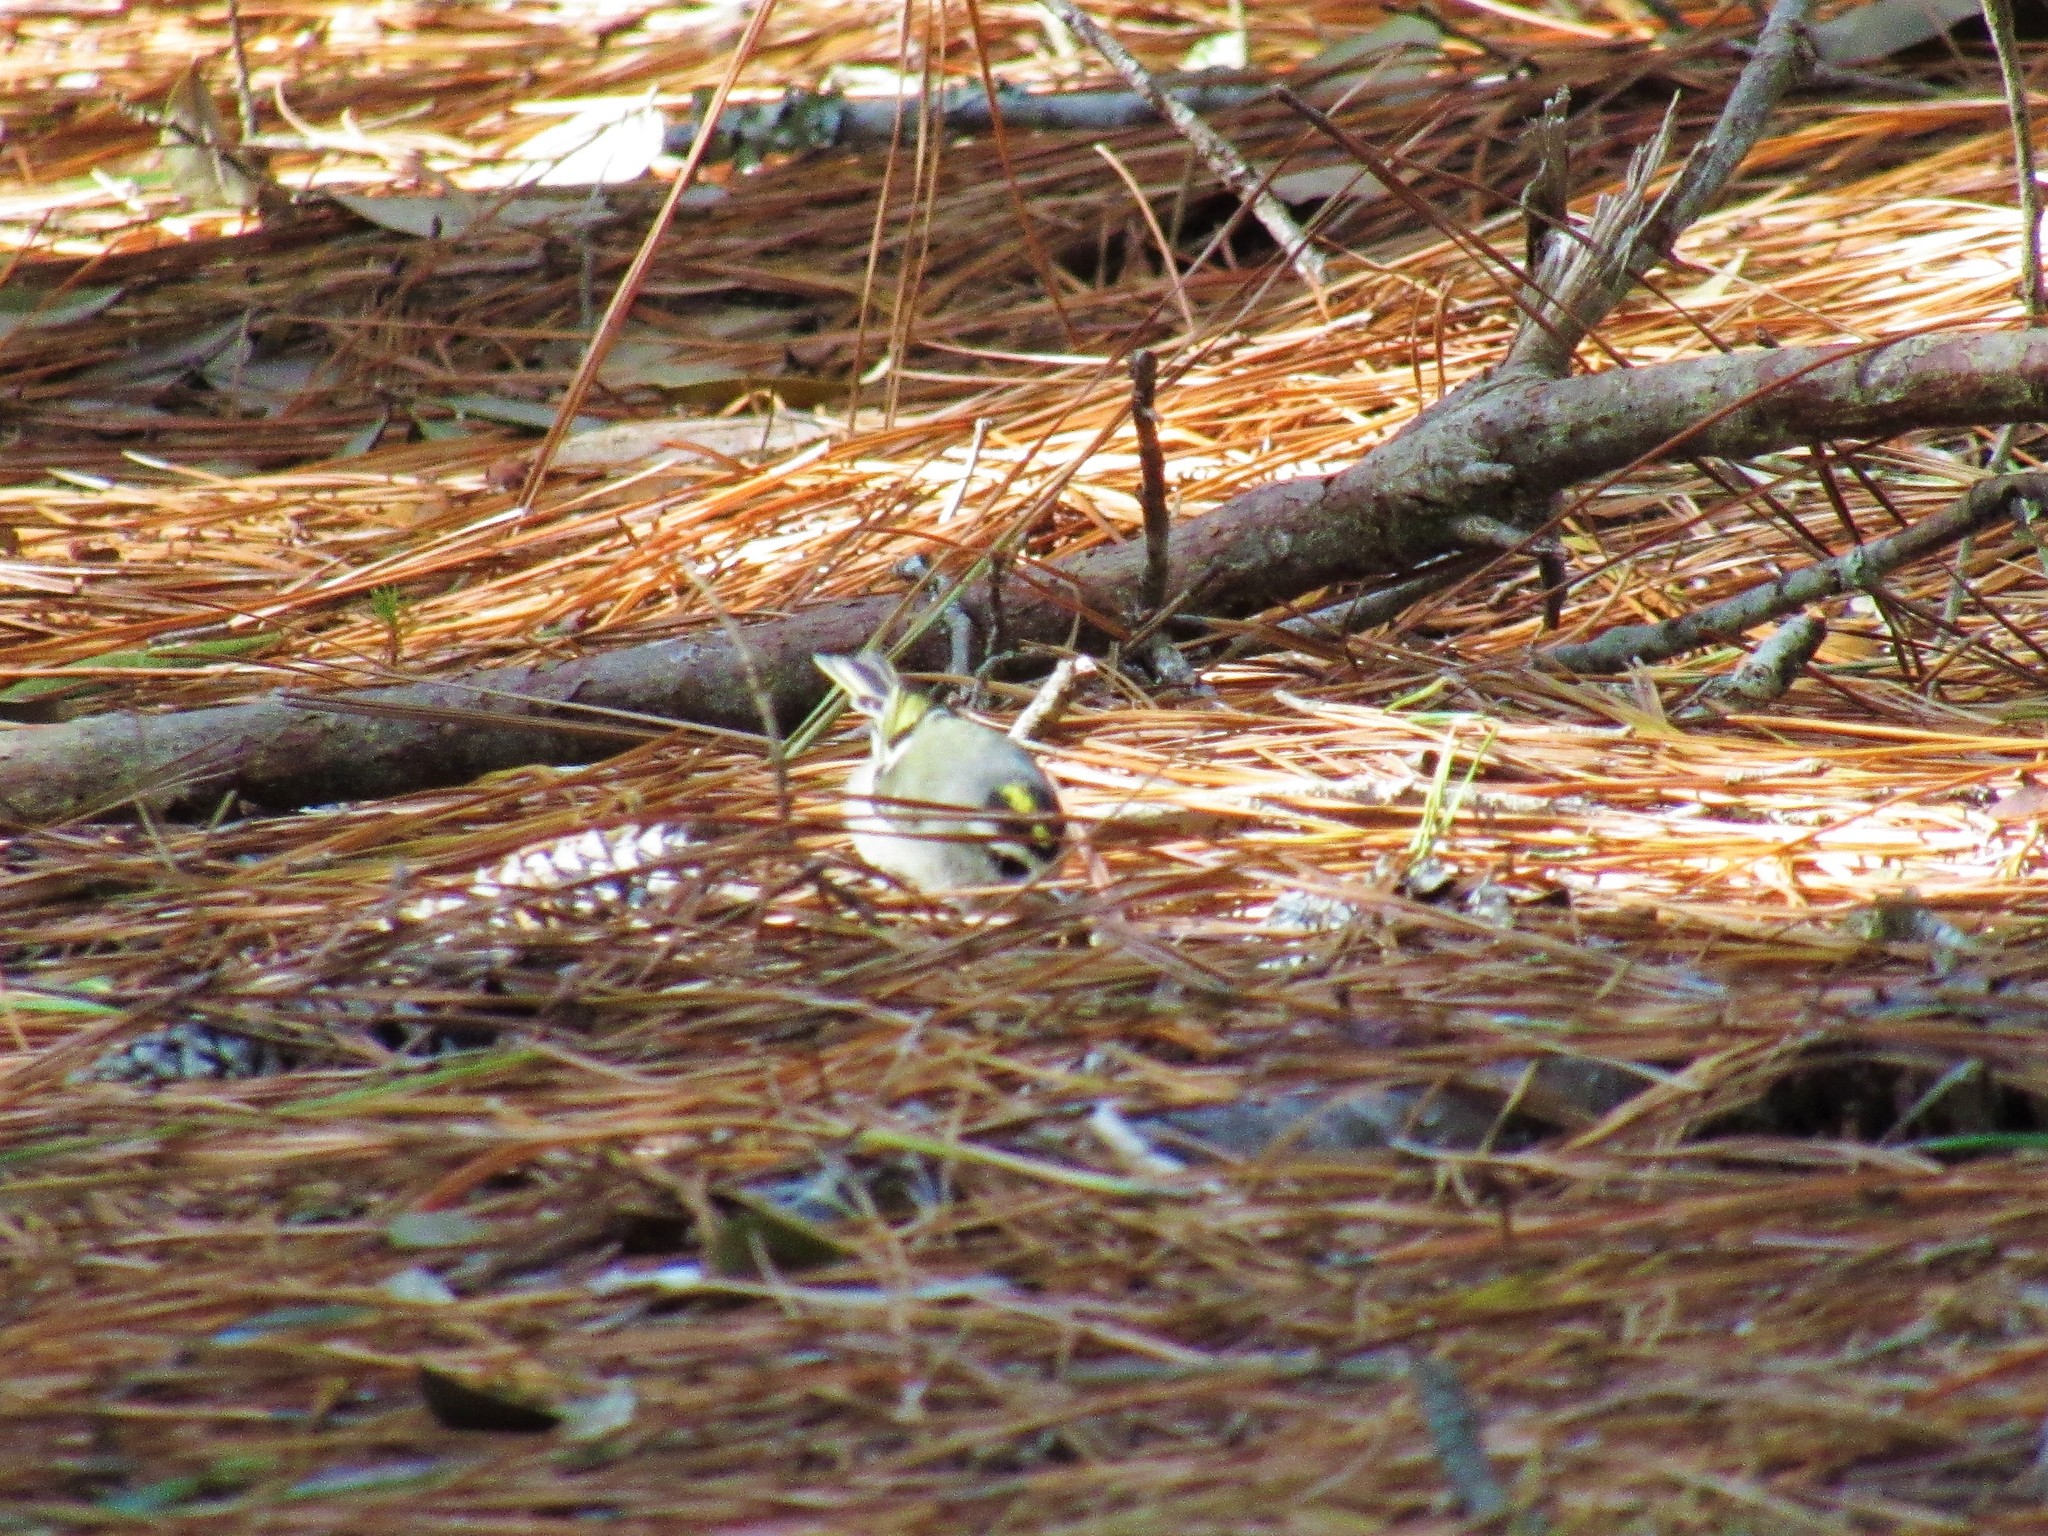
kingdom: Animalia
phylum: Chordata
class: Aves
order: Passeriformes
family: Regulidae
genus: Regulus
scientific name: Regulus satrapa
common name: Golden-crowned kinglet
